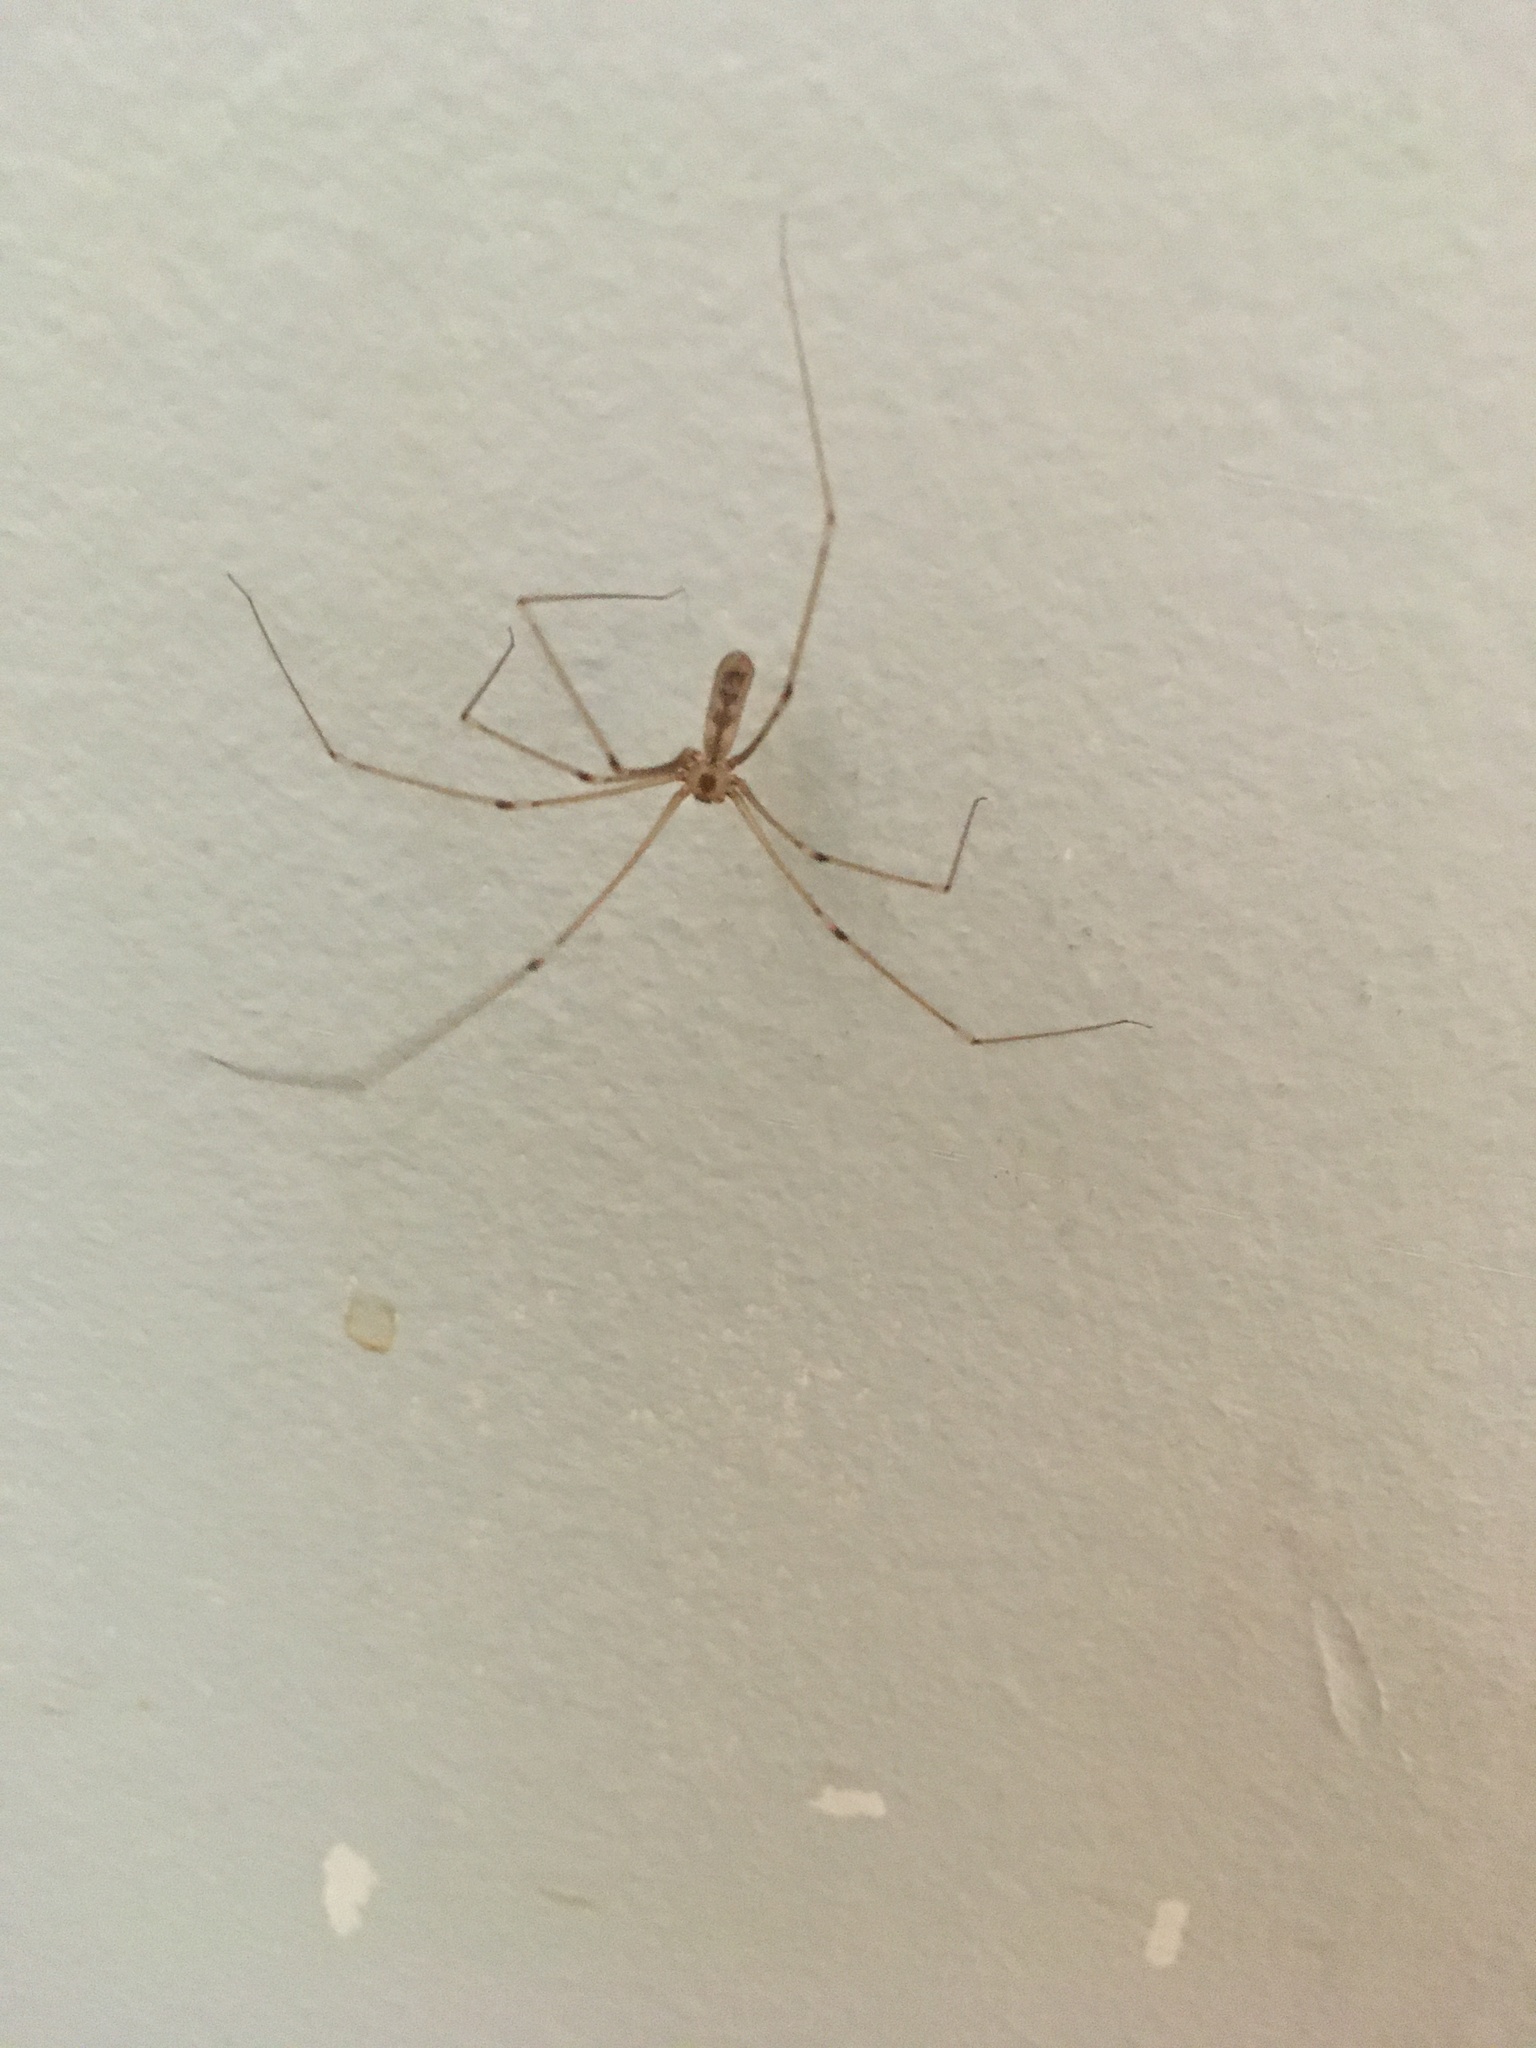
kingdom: Animalia
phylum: Arthropoda
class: Arachnida
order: Araneae
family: Pholcidae
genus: Pholcus
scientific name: Pholcus phalangioides
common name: Longbodied cellar spider
